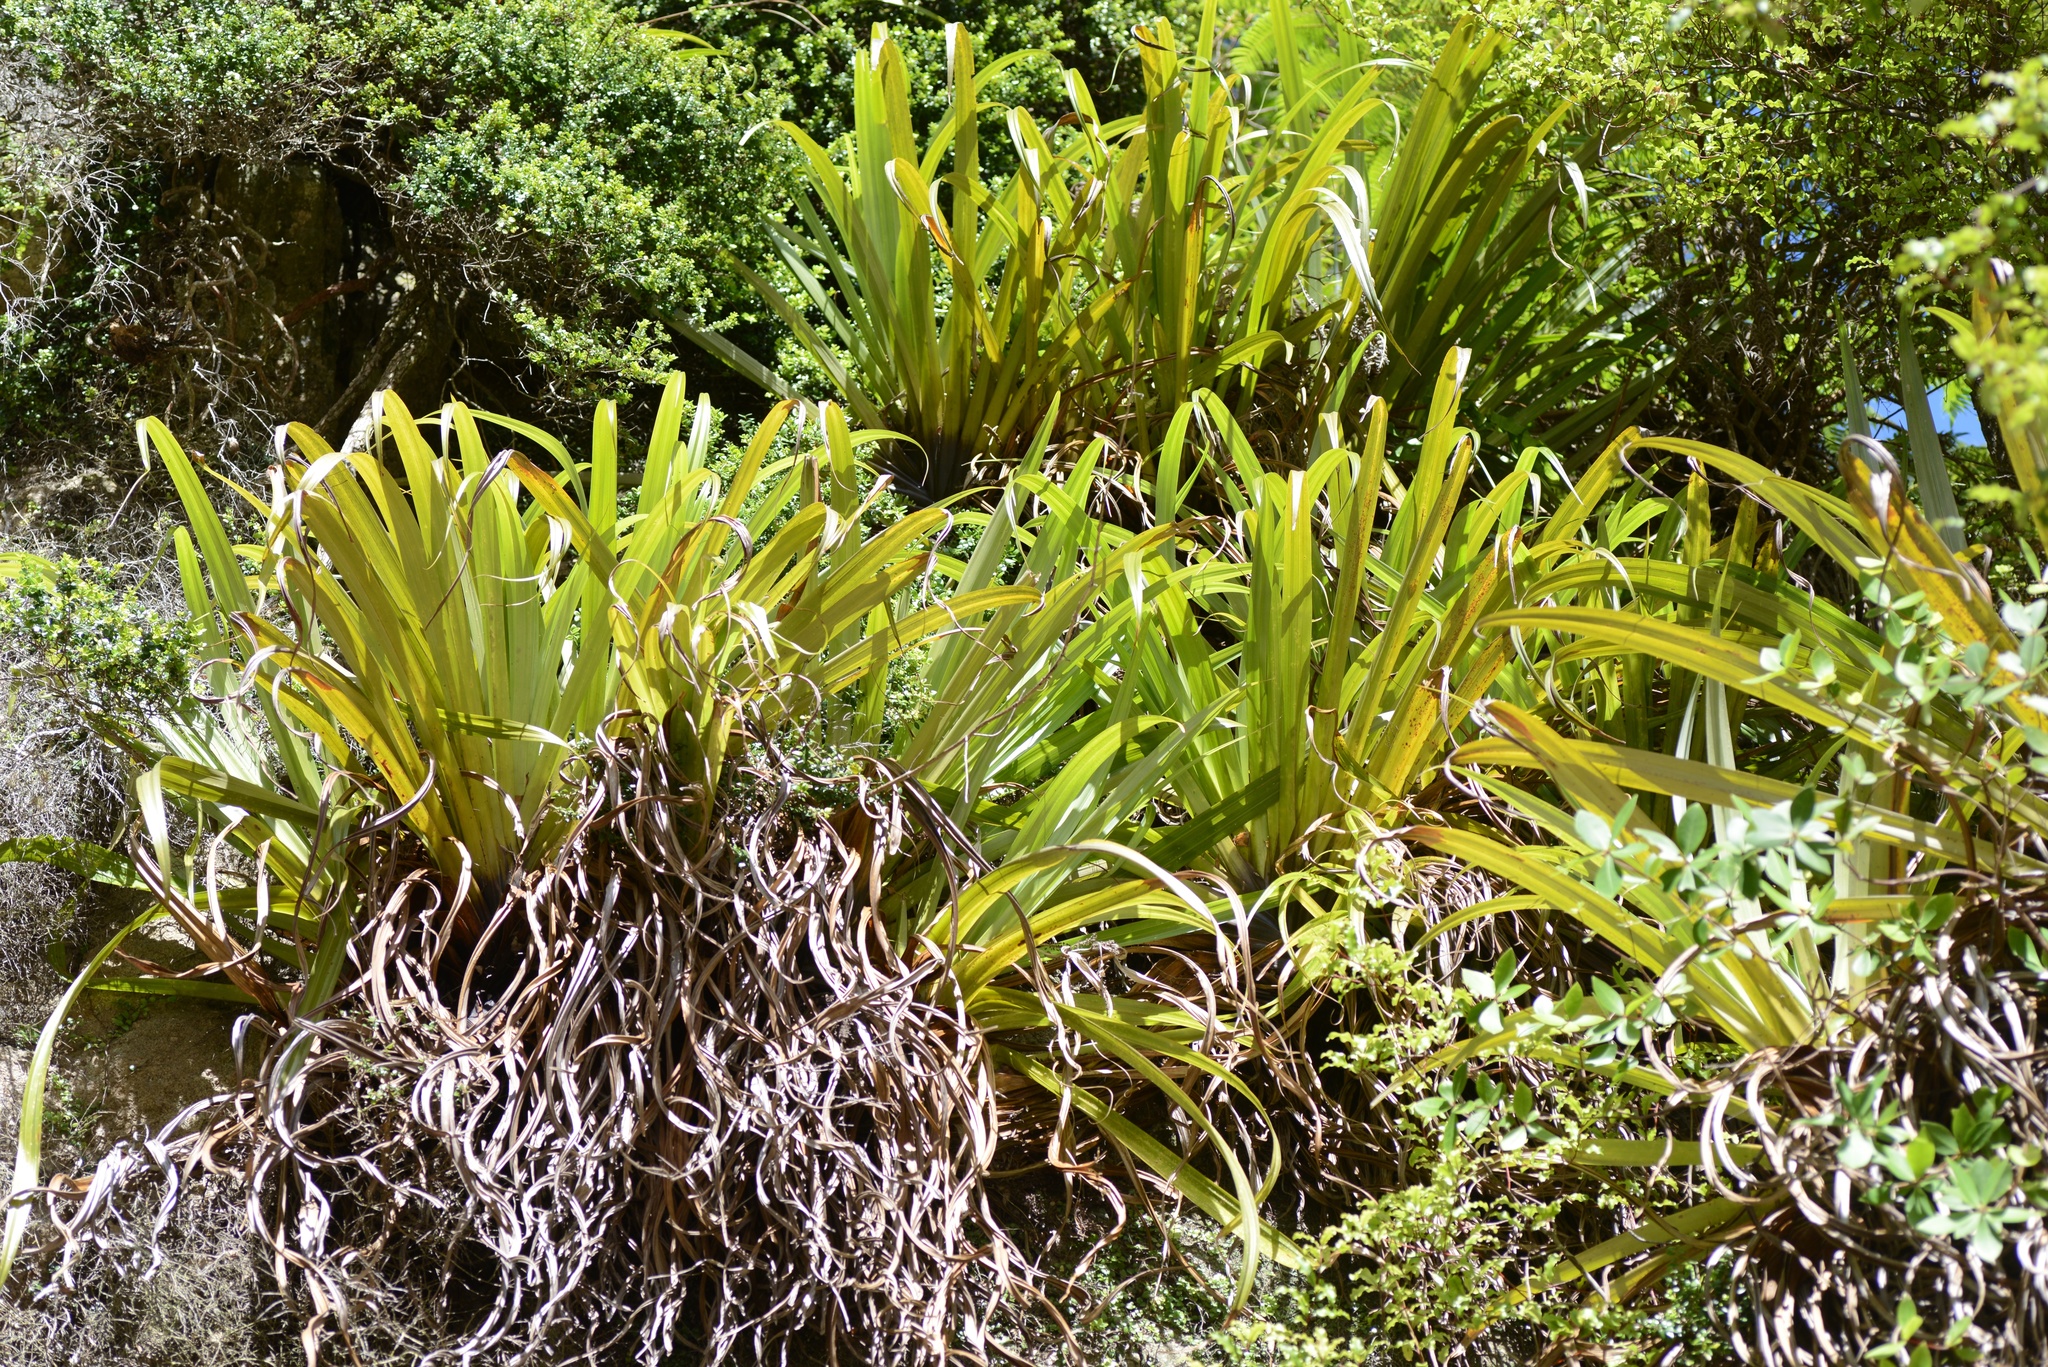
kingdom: Plantae
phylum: Tracheophyta
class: Liliopsida
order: Asparagales
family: Asteliaceae
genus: Astelia
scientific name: Astelia hastata
